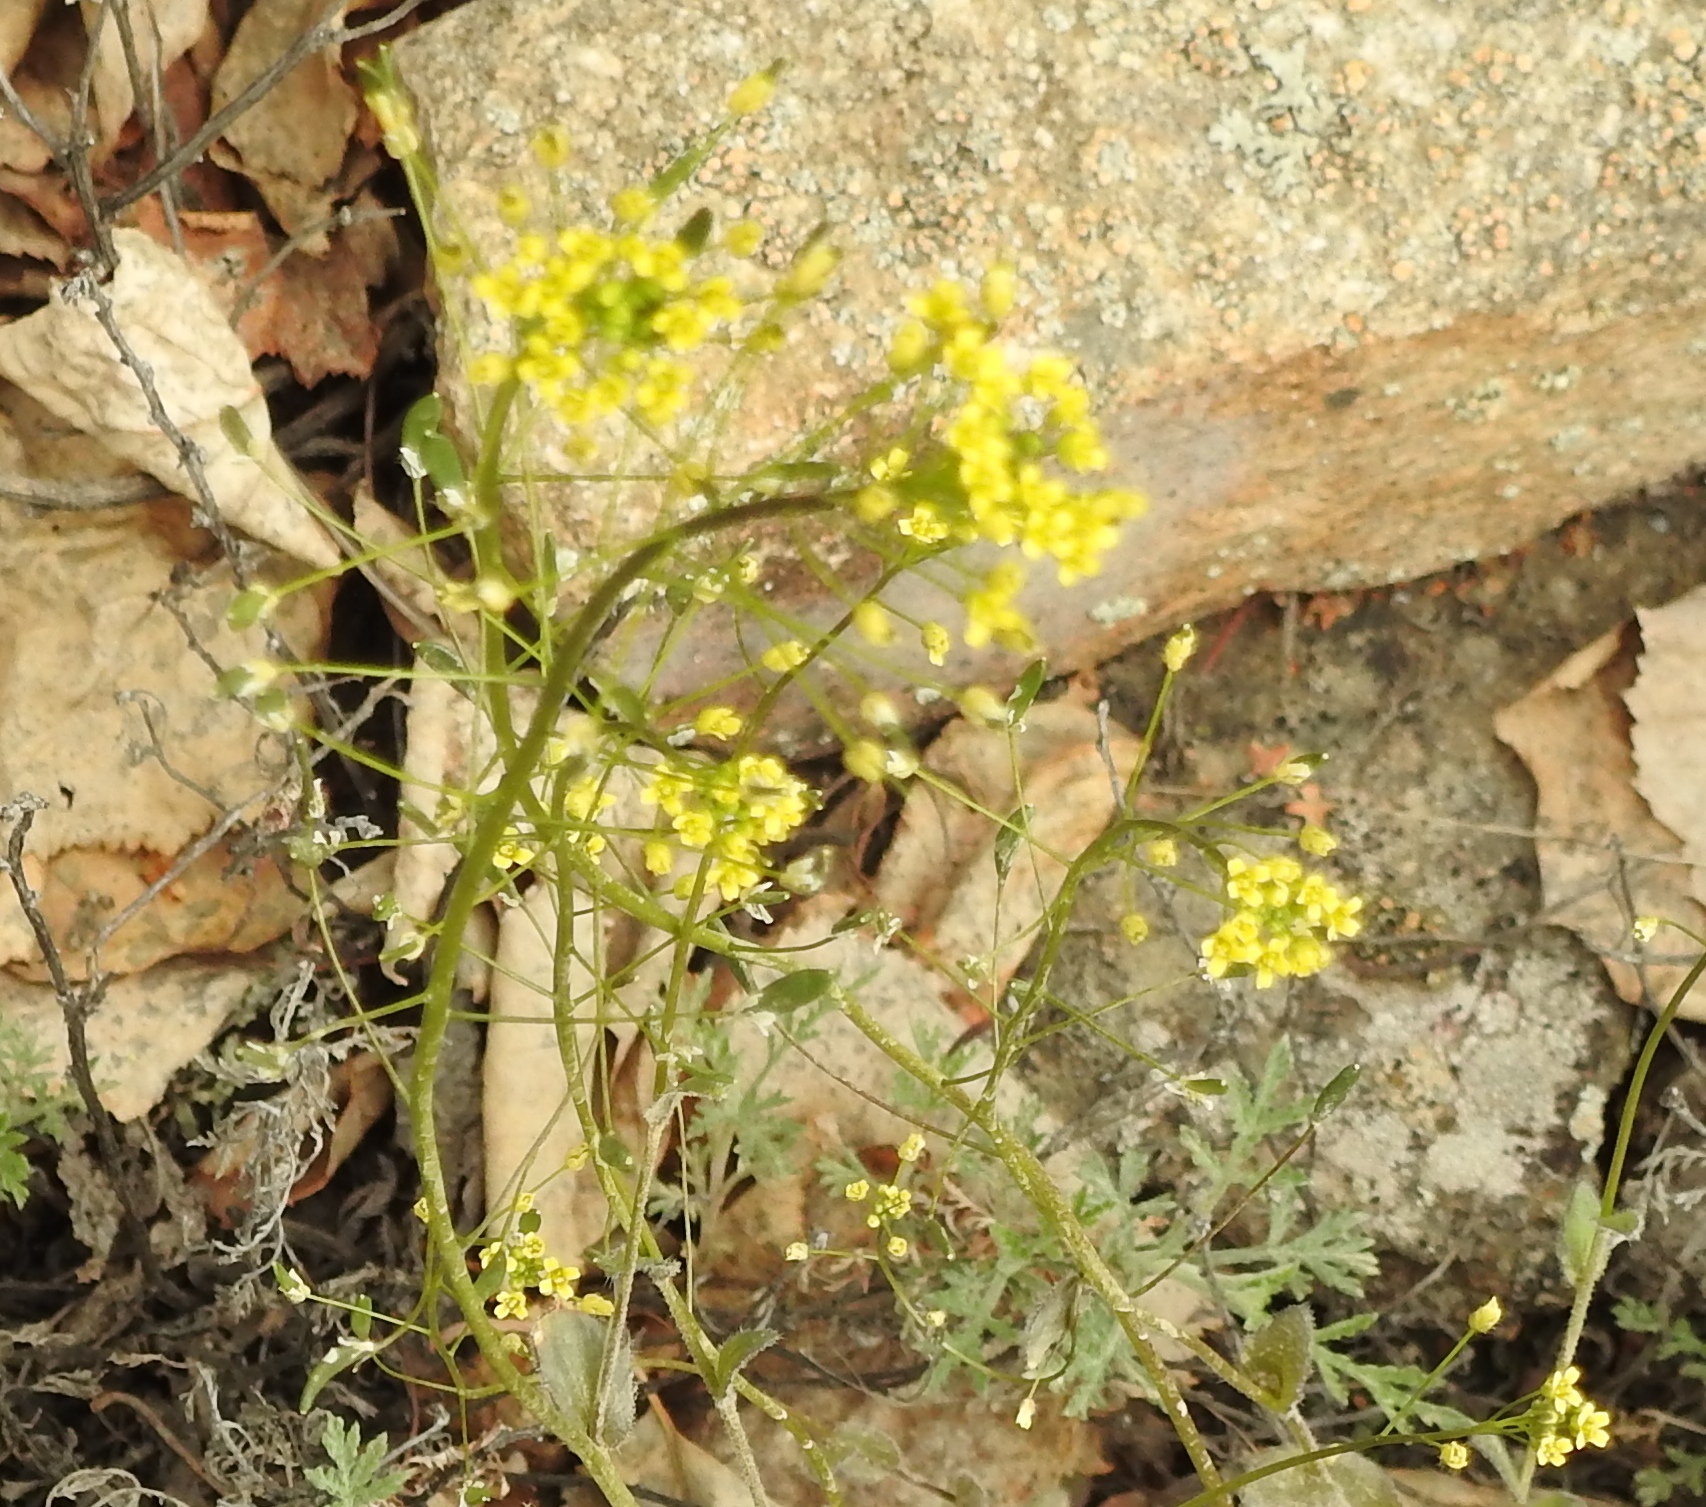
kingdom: Plantae
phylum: Tracheophyta
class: Magnoliopsida
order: Brassicales
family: Brassicaceae
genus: Draba
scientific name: Draba nemorosa
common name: Wood whitlow-grass
